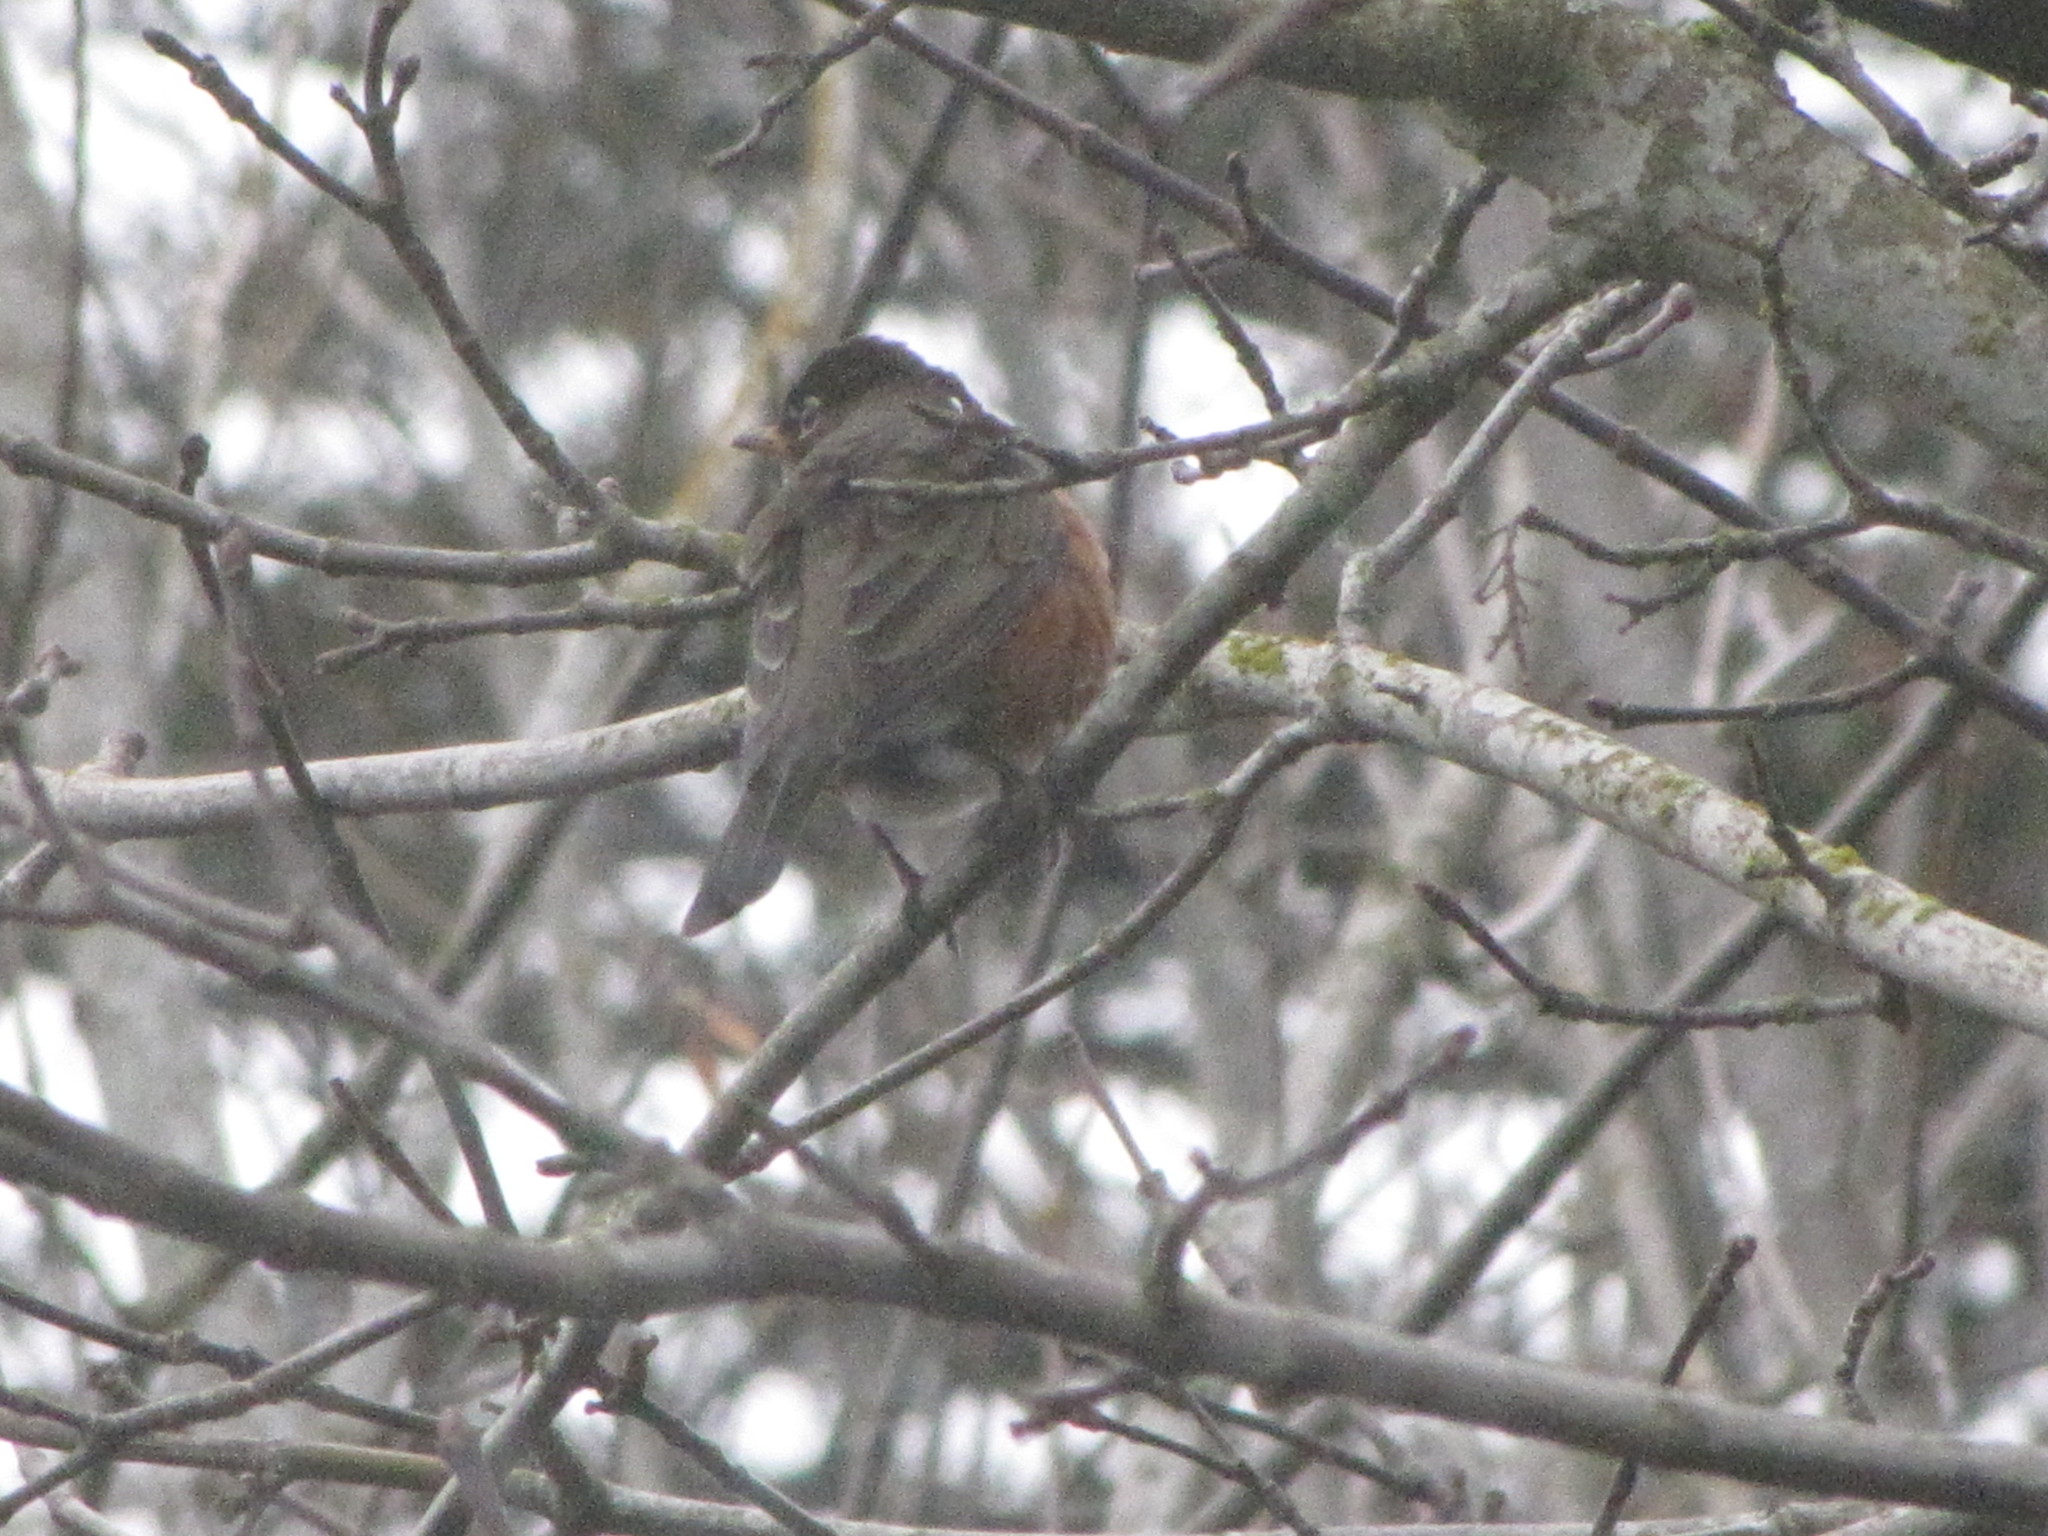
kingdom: Animalia
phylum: Chordata
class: Aves
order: Passeriformes
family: Turdidae
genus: Turdus
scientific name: Turdus migratorius
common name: American robin
